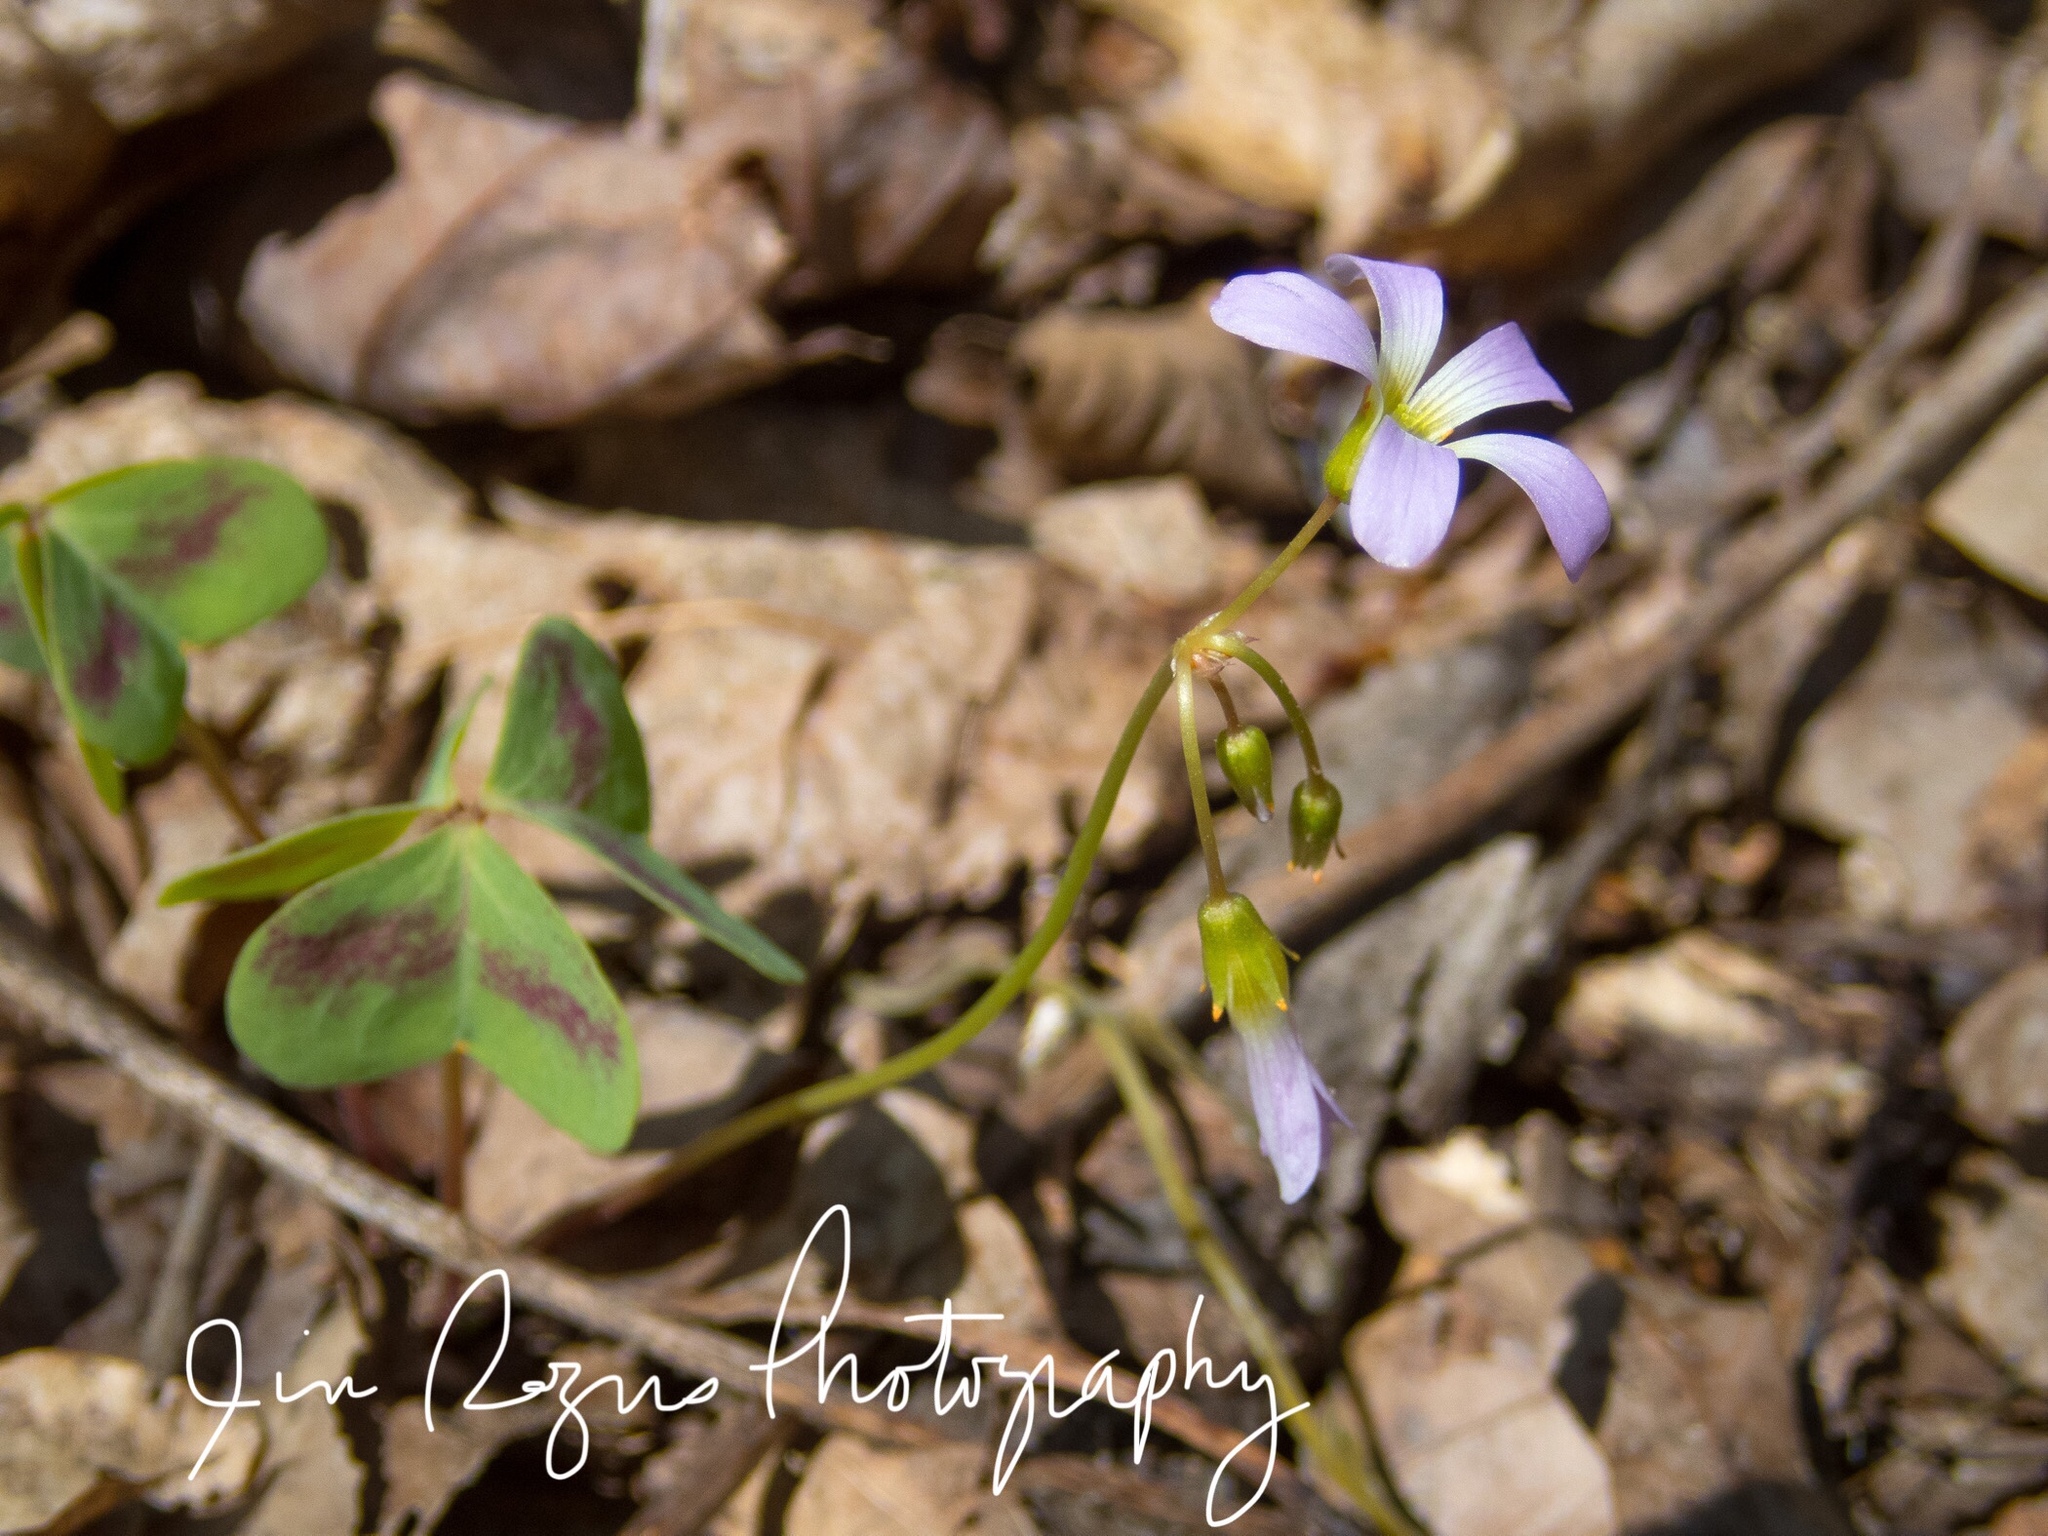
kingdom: Plantae
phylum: Tracheophyta
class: Magnoliopsida
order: Oxalidales
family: Oxalidaceae
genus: Oxalis
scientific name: Oxalis violacea
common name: Violet wood-sorrel
